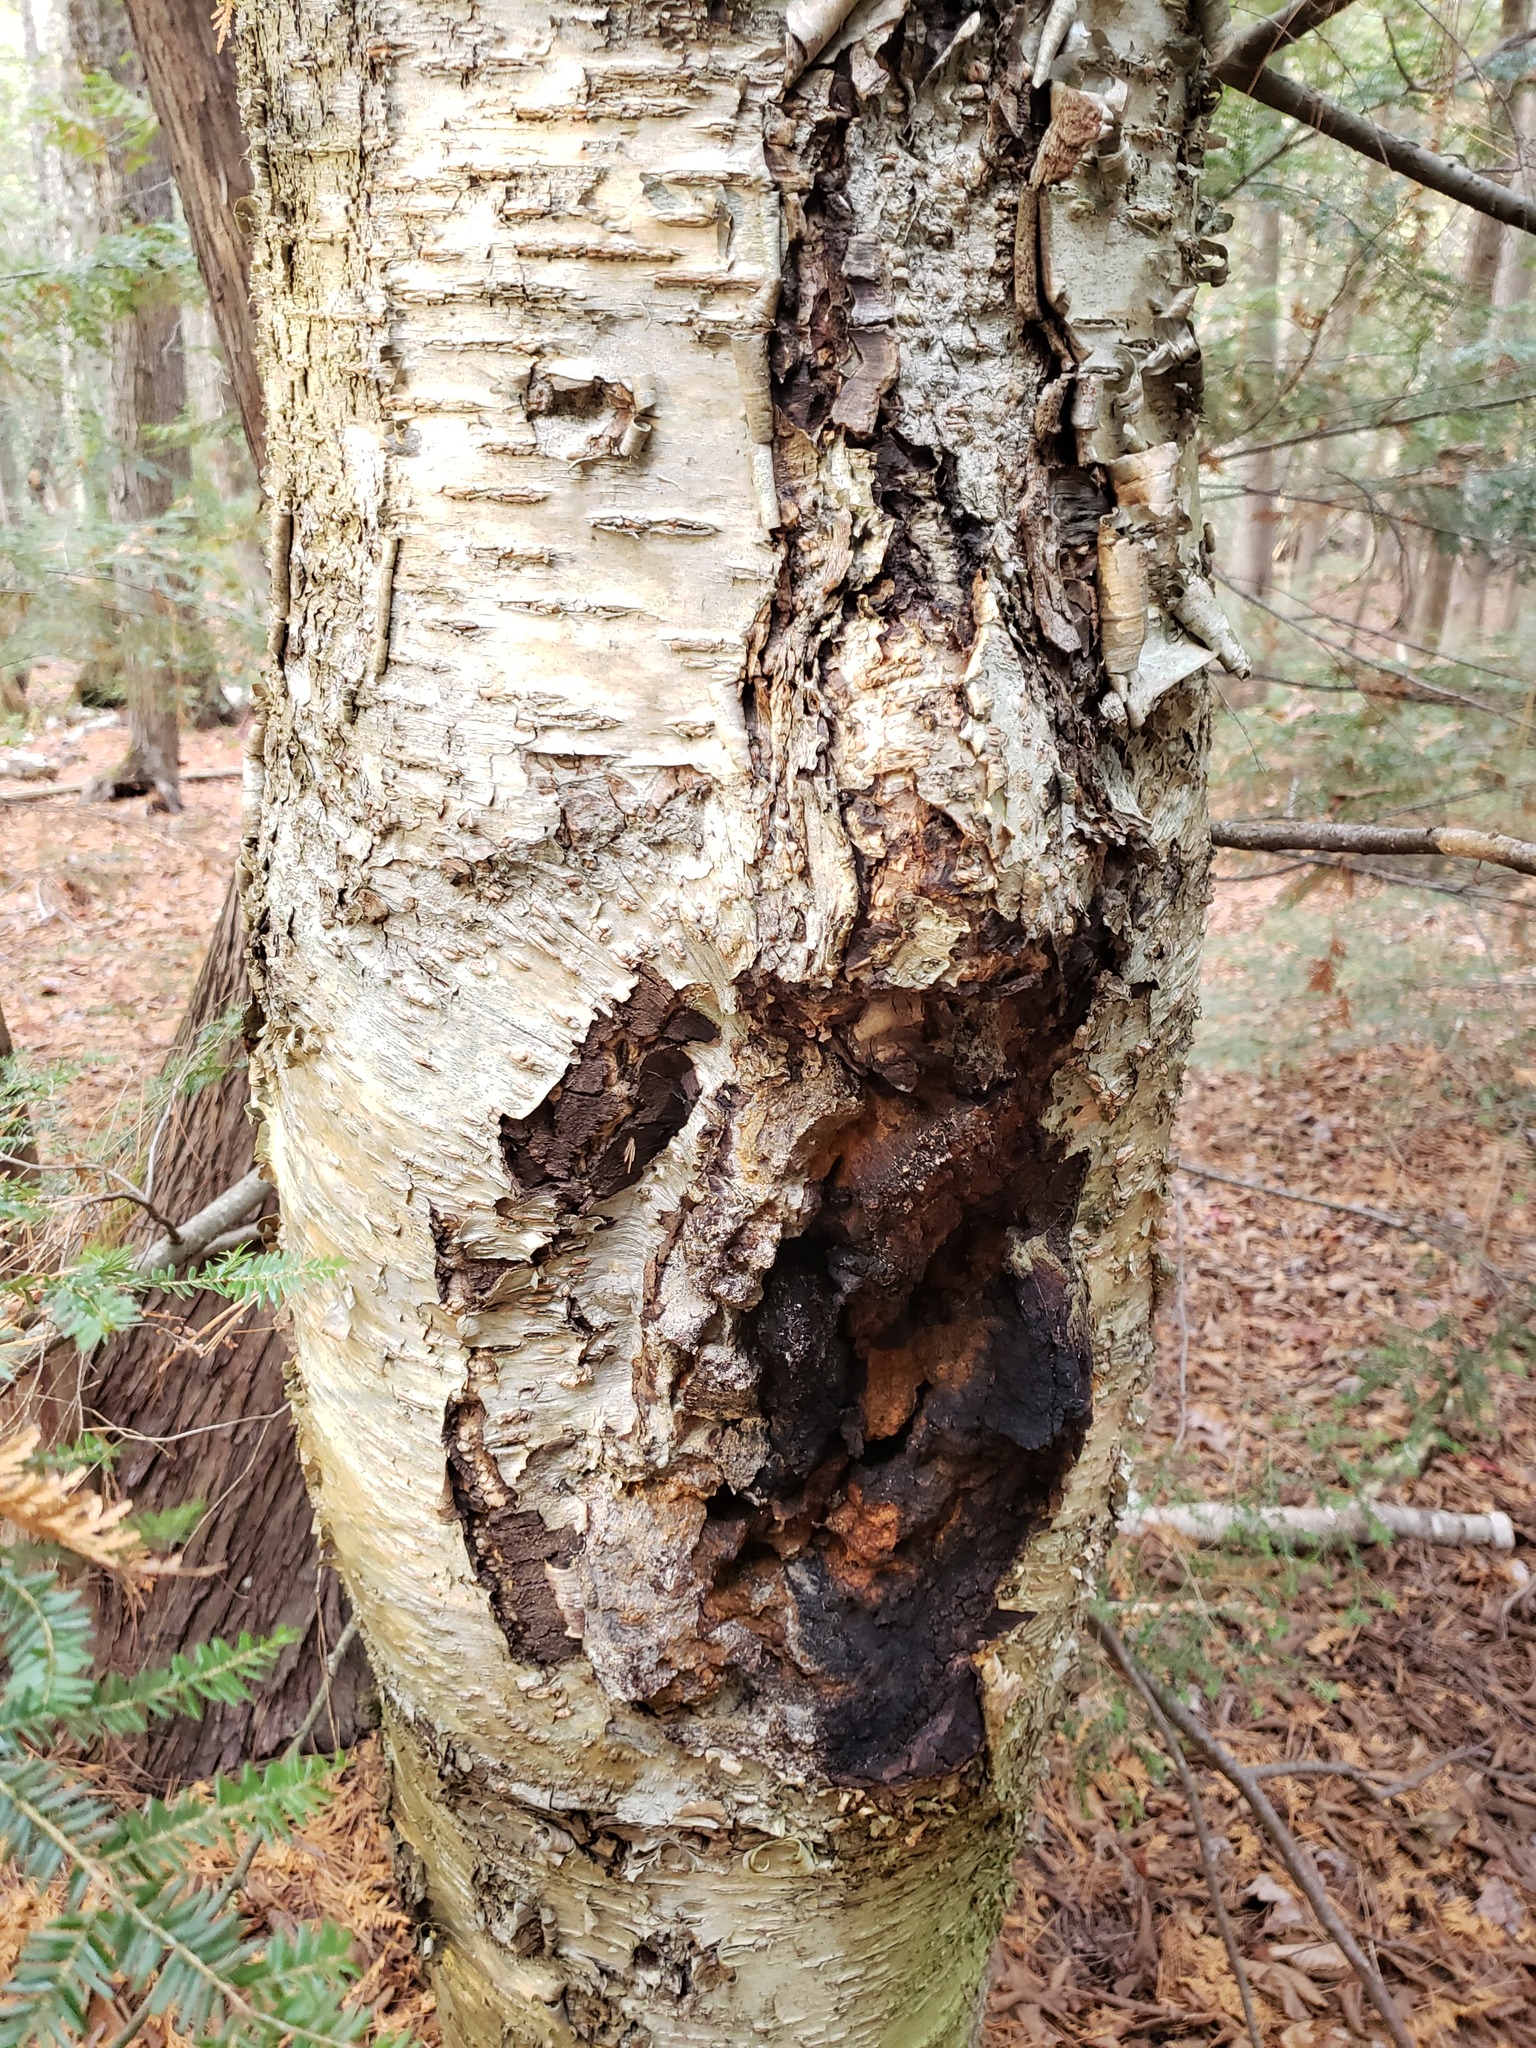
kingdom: Fungi
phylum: Basidiomycota
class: Agaricomycetes
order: Hymenochaetales
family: Hymenochaetaceae
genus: Inonotus
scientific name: Inonotus obliquus
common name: Chaga
